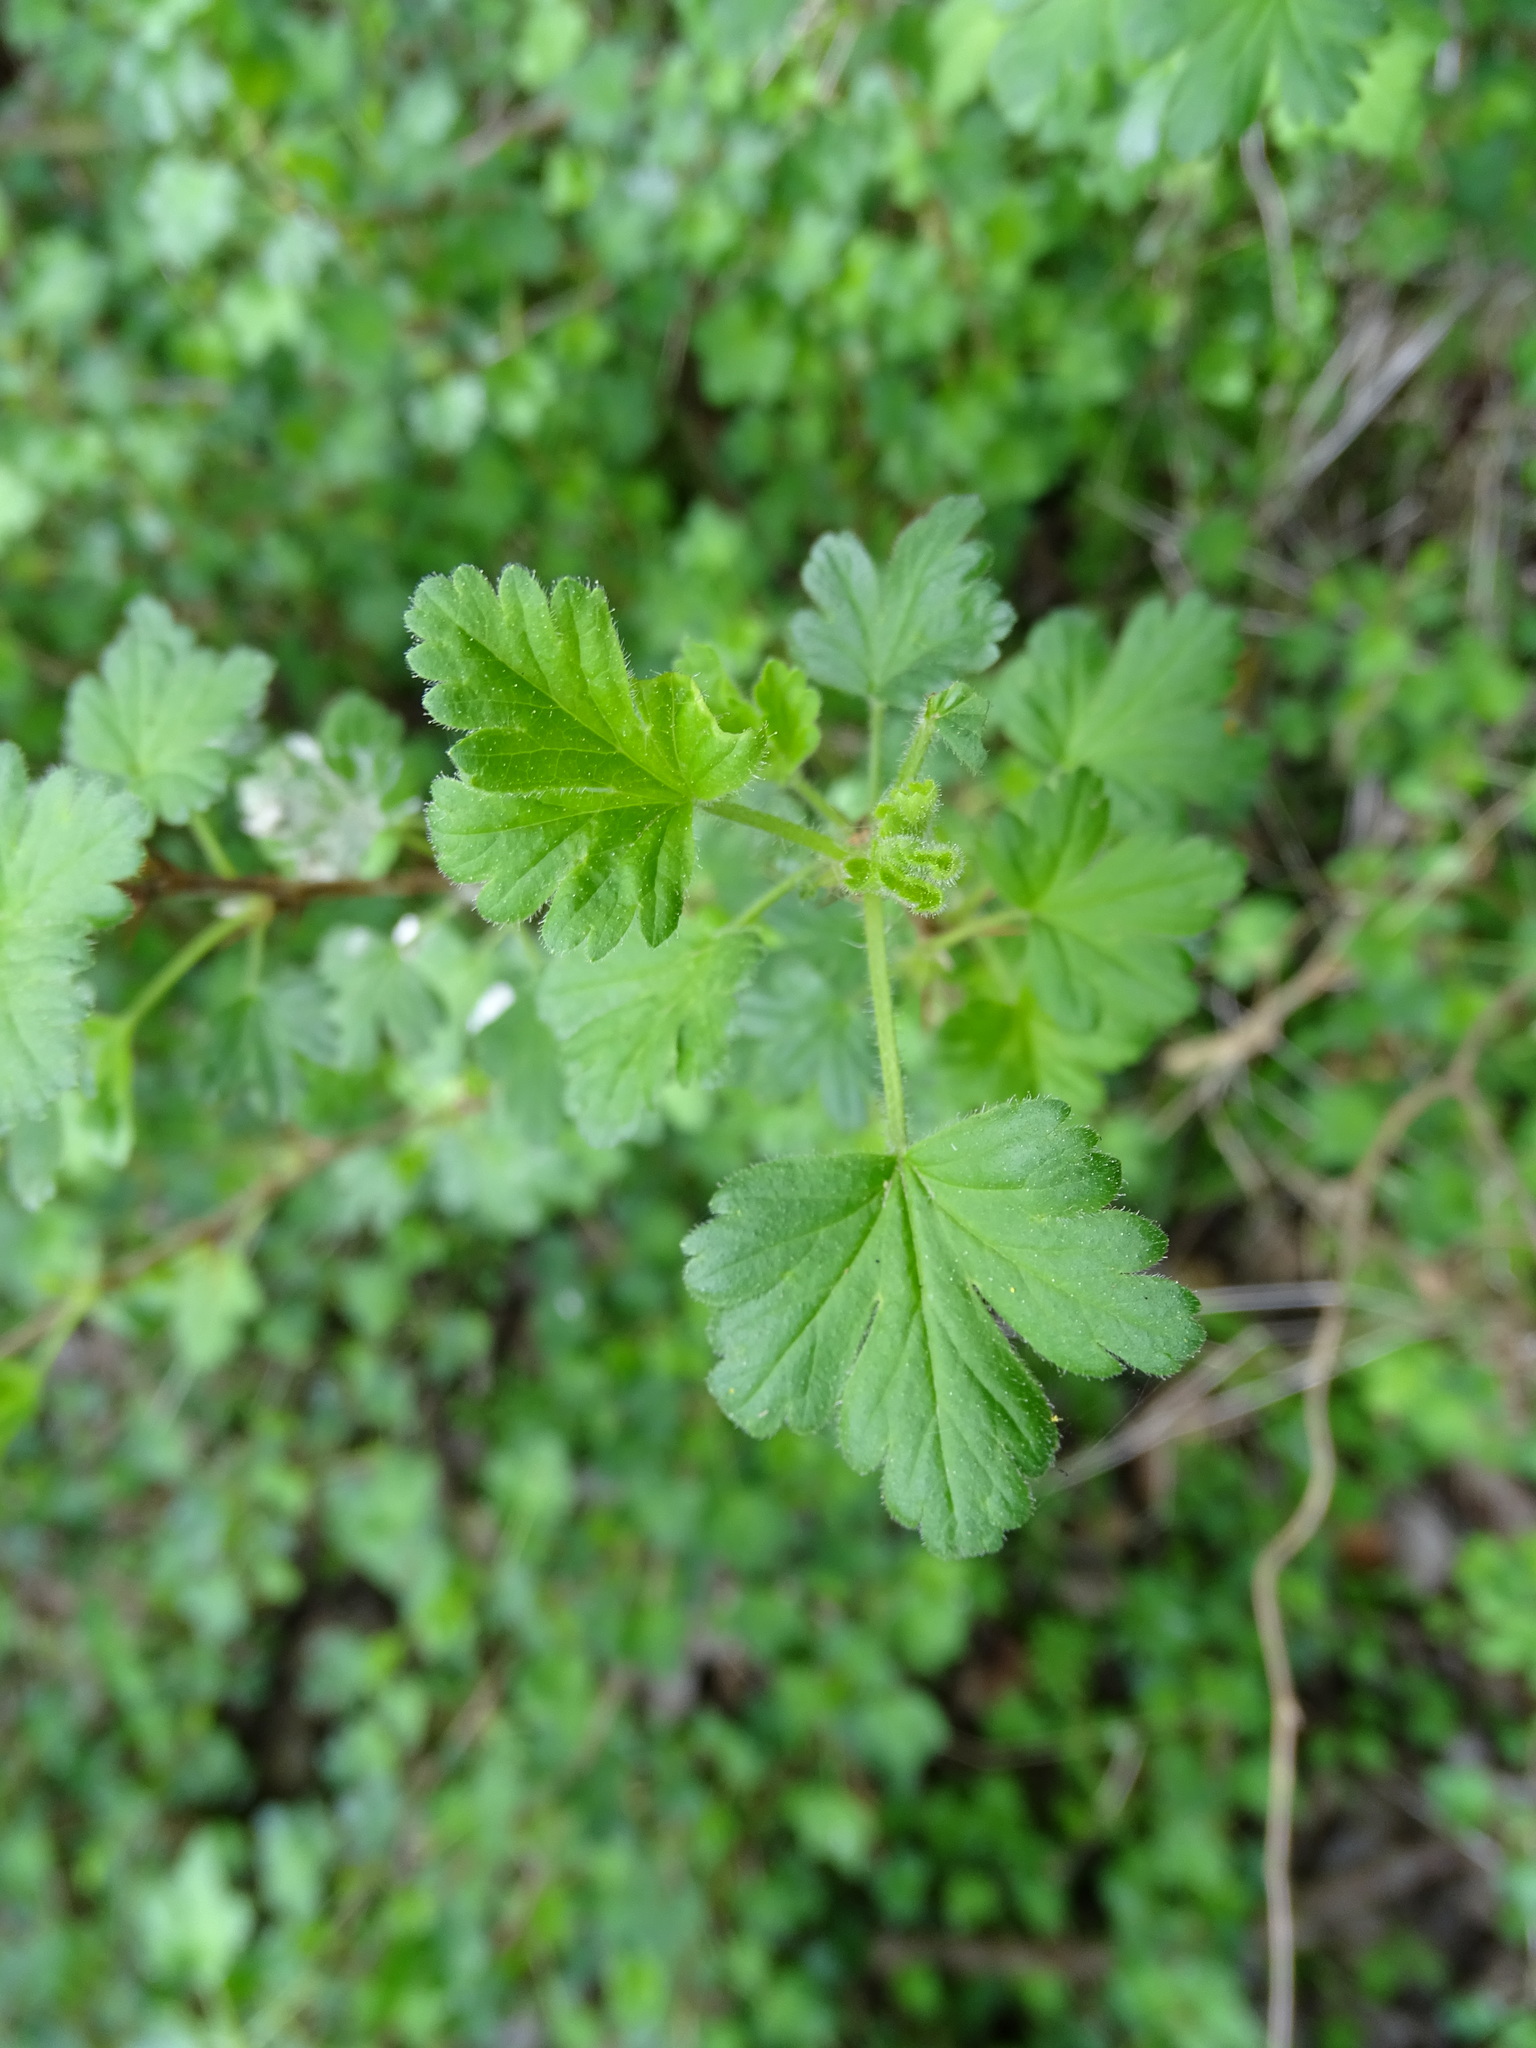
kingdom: Plantae
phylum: Tracheophyta
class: Magnoliopsida
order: Saxifragales
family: Grossulariaceae
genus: Ribes
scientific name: Ribes uva-crispa
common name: Gooseberry
